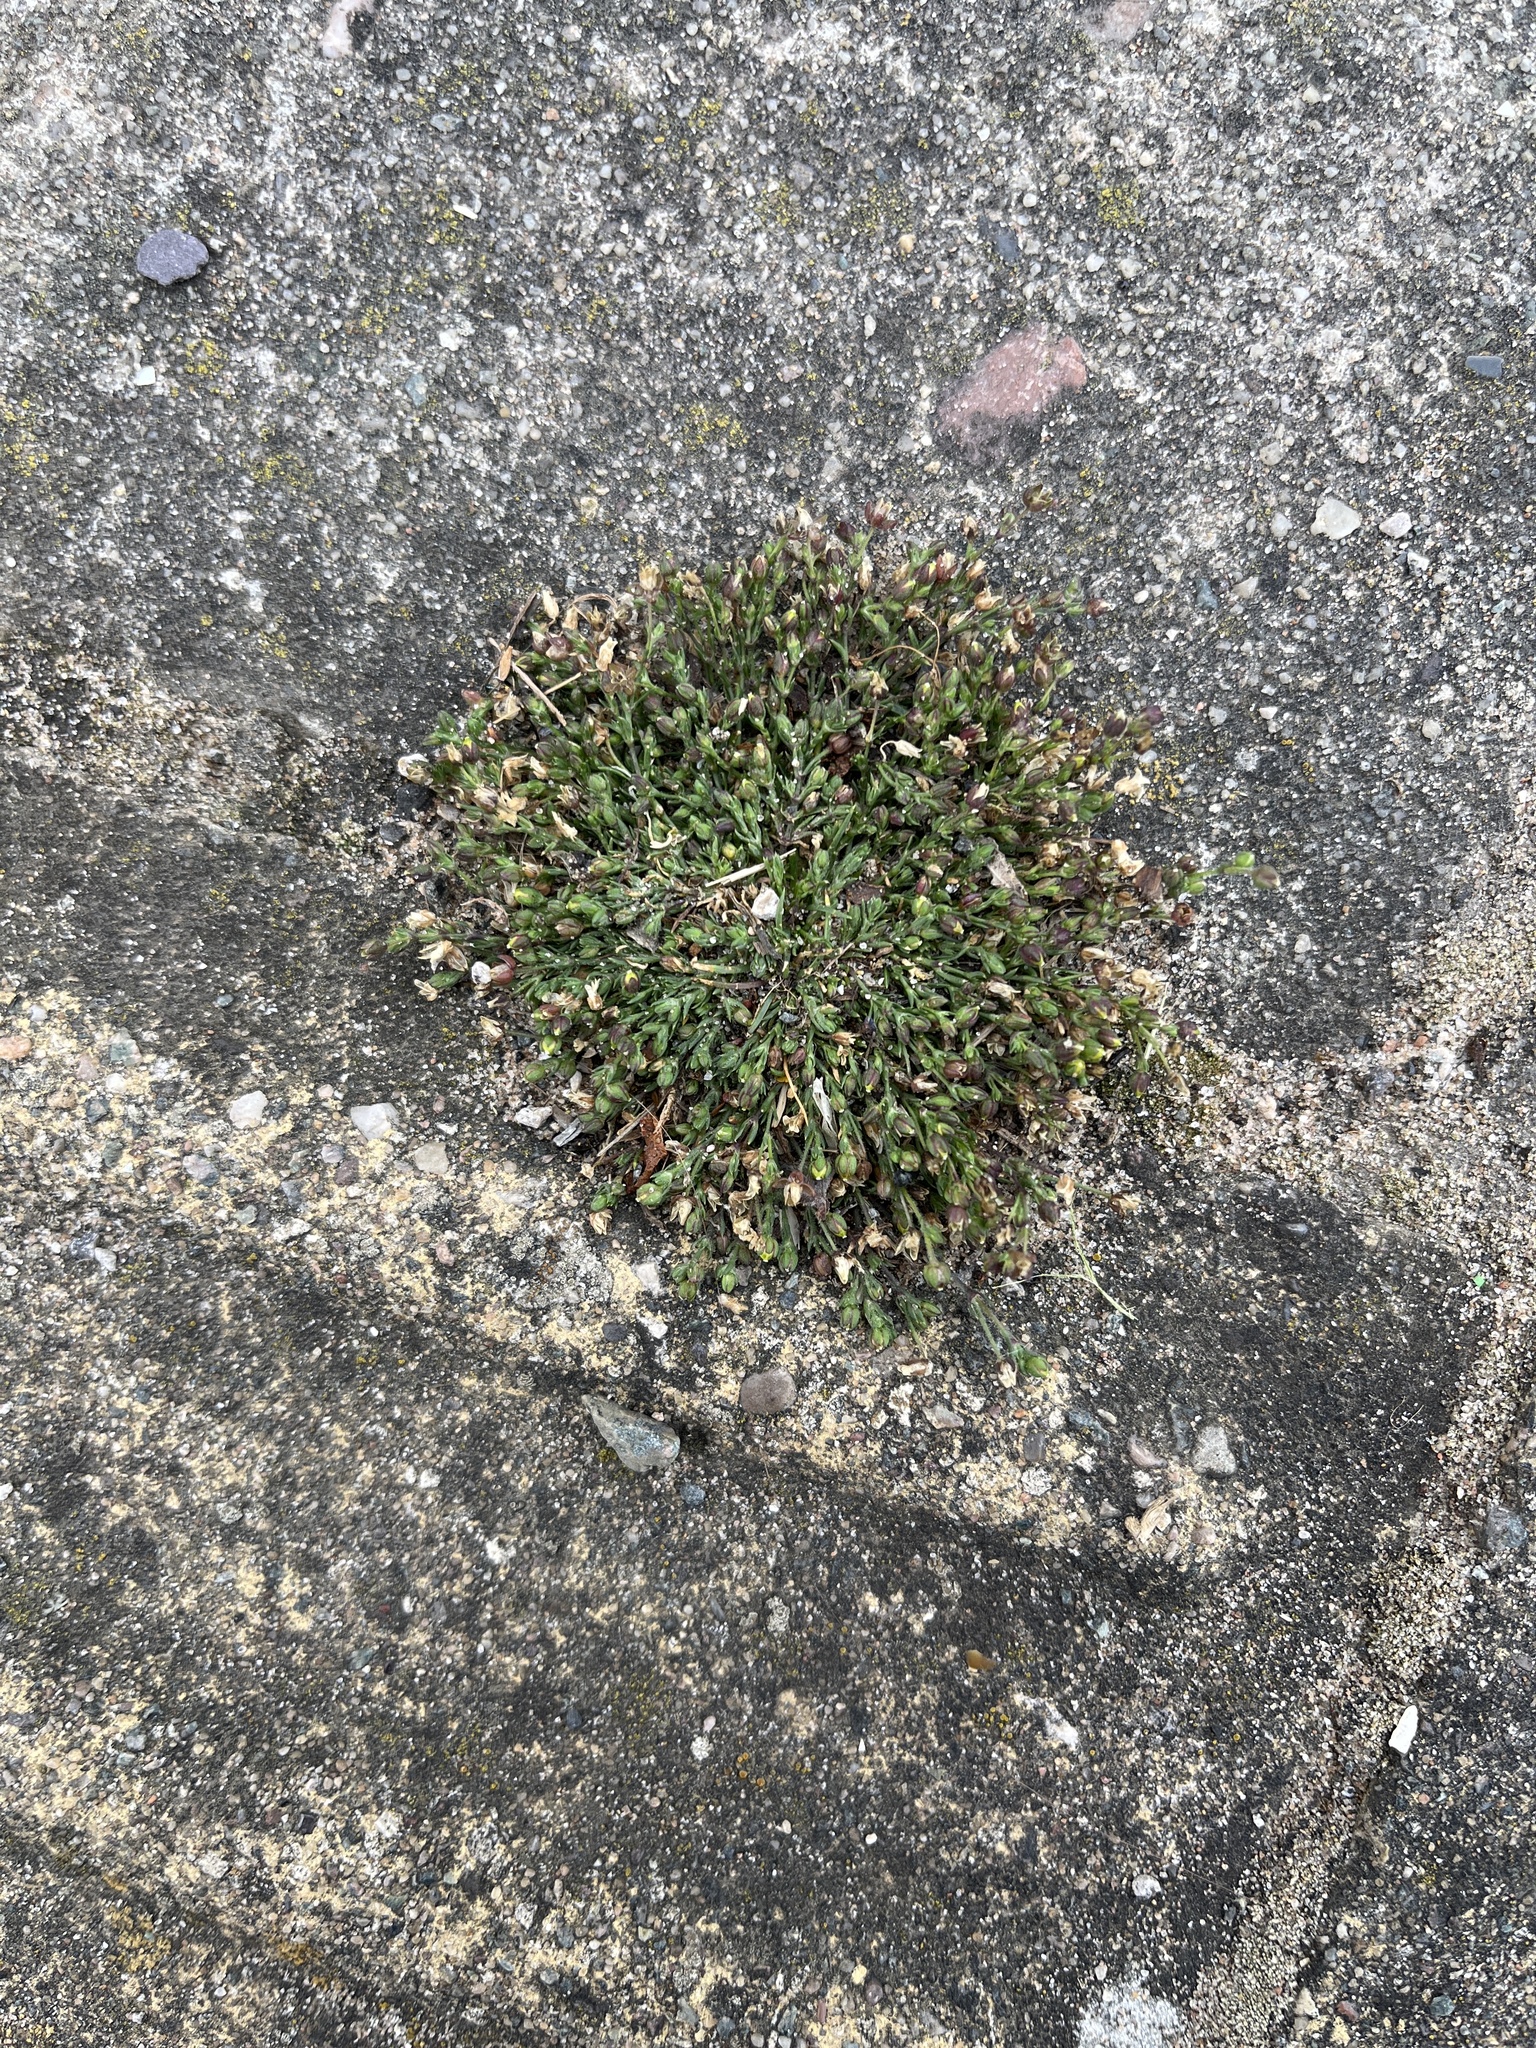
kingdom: Plantae
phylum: Tracheophyta
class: Magnoliopsida
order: Caryophyllales
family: Caryophyllaceae
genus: Sagina
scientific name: Sagina maritima
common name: Sea pearlwort
